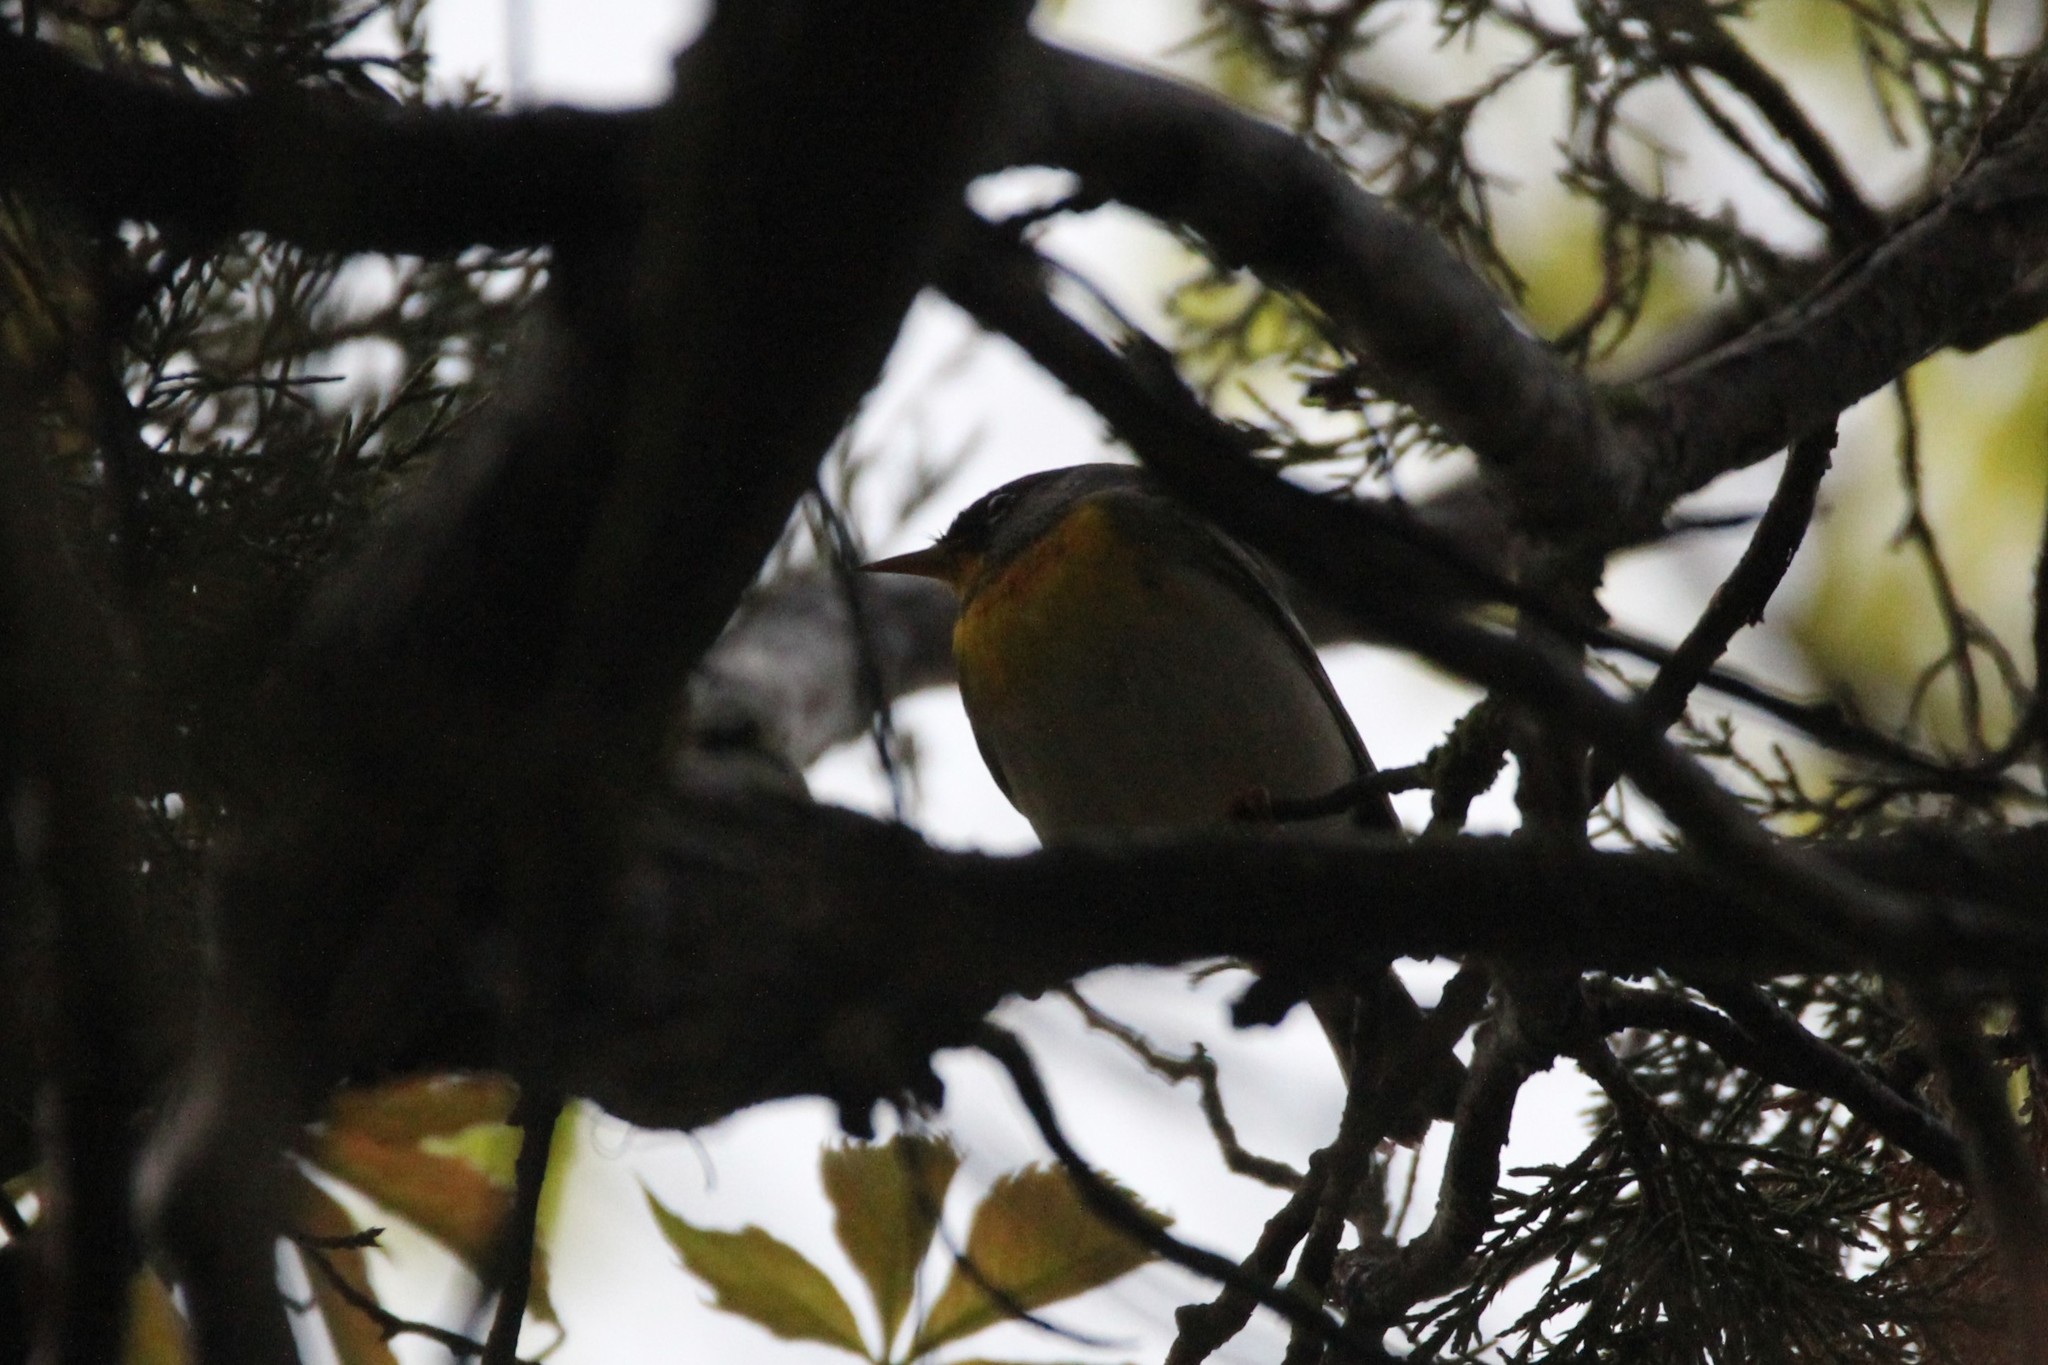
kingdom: Animalia
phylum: Chordata
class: Aves
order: Passeriformes
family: Parulidae
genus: Setophaga
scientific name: Setophaga americana
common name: Northern parula
